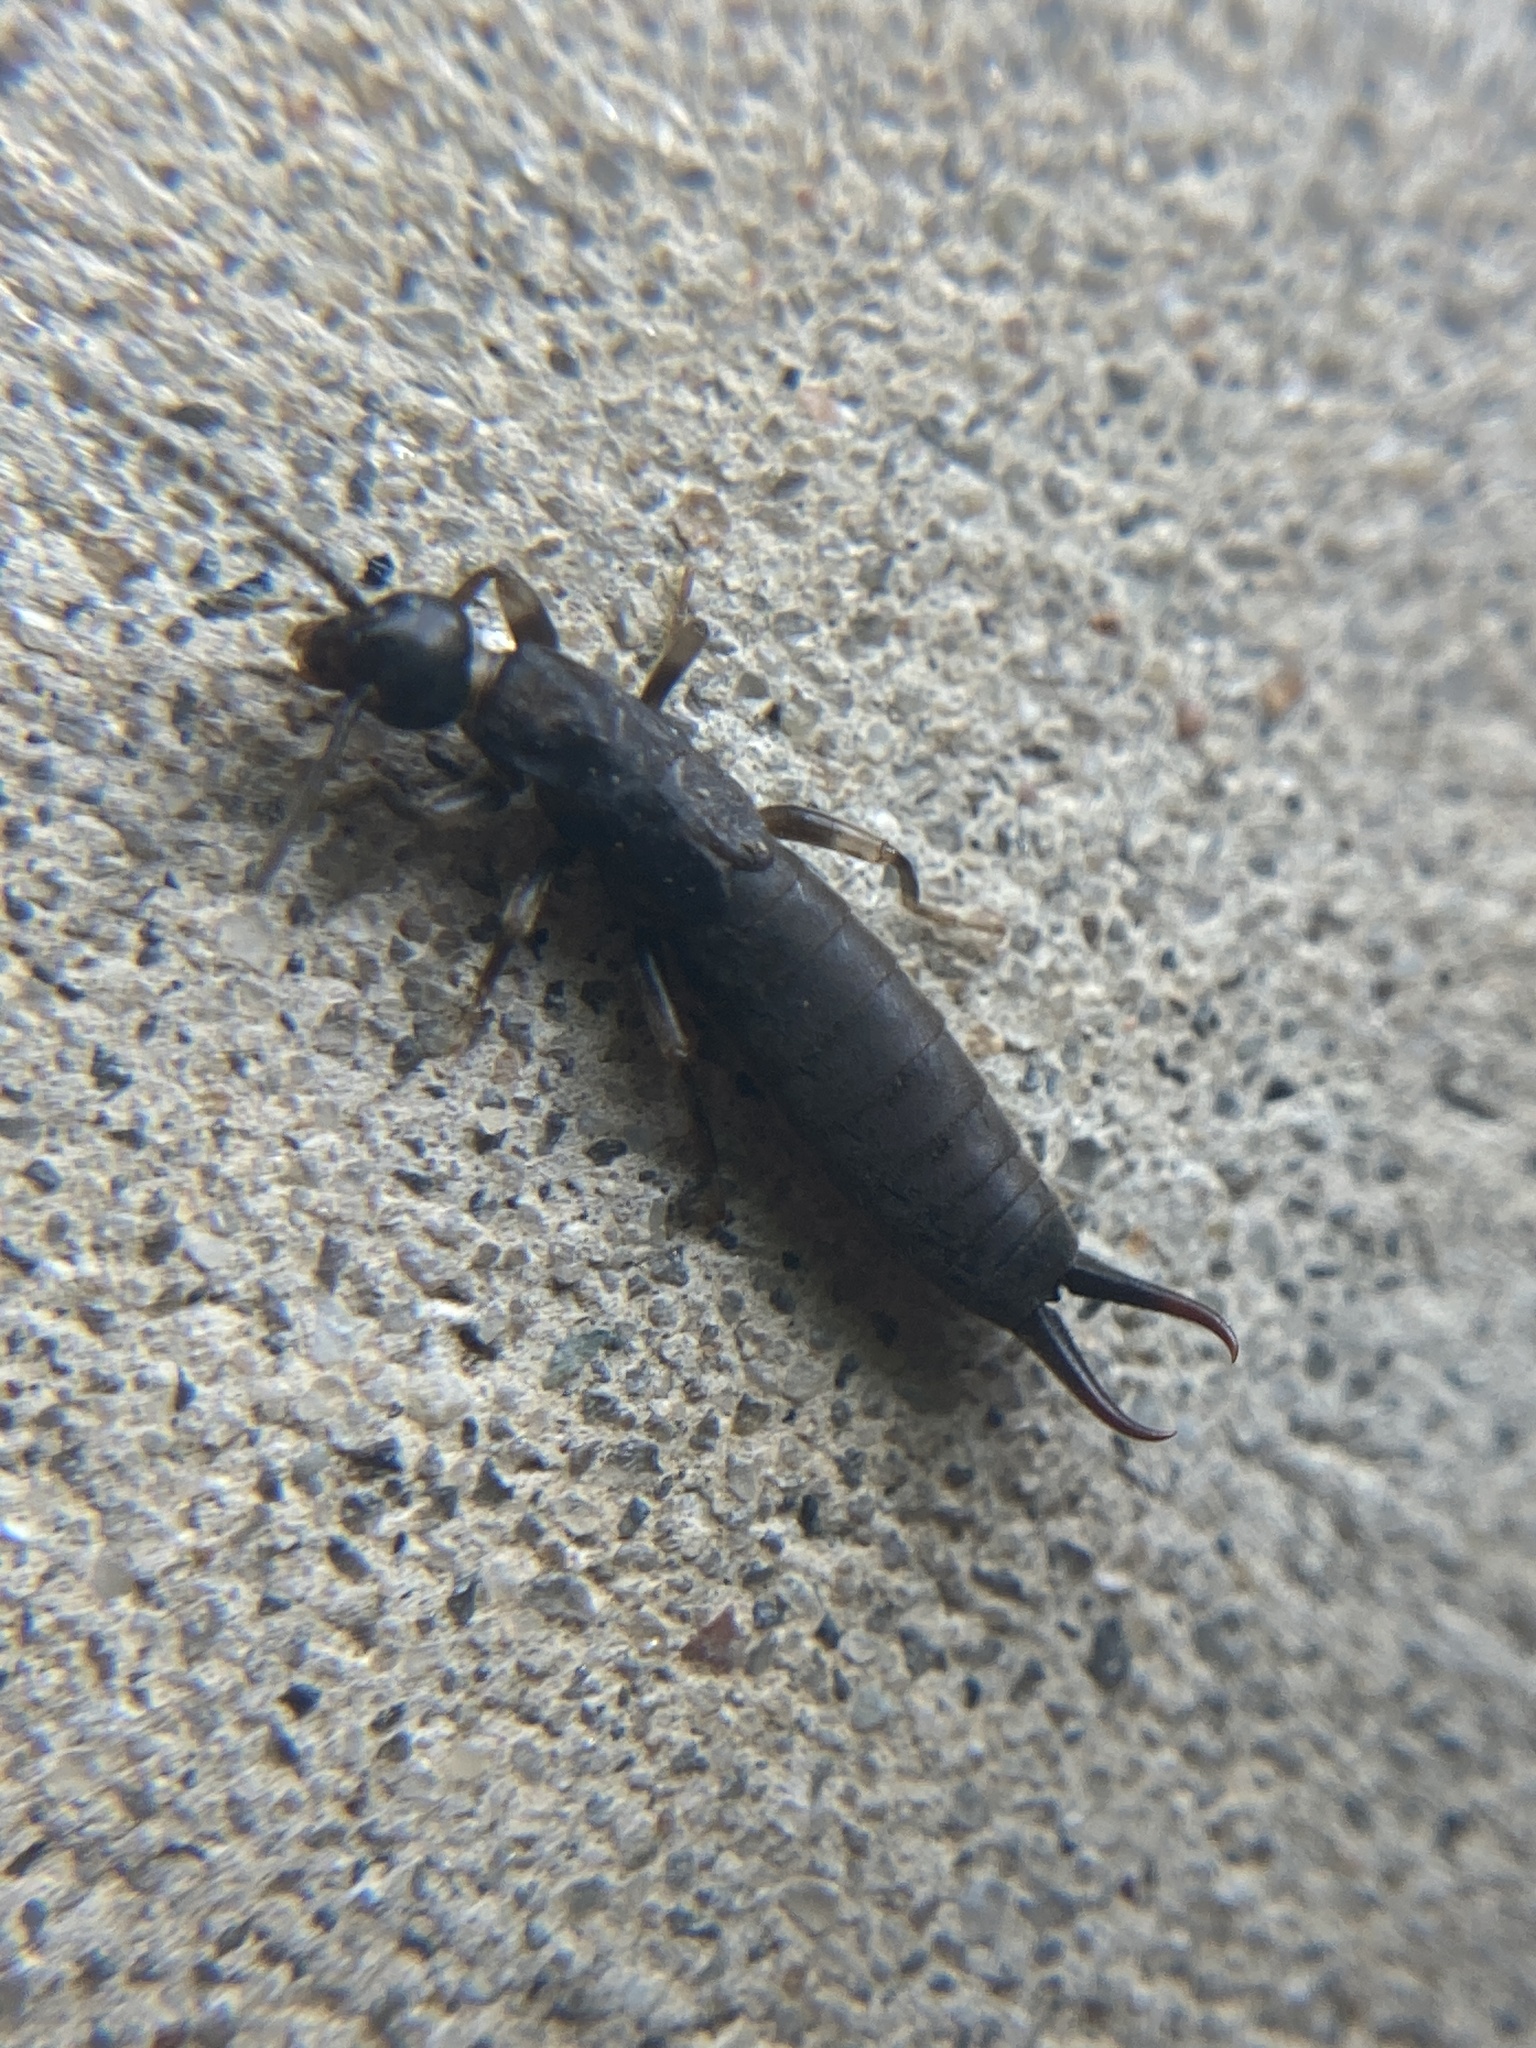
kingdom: Animalia
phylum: Arthropoda
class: Insecta
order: Dermaptera
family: Labiduridae
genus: Nala
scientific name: Nala lividipes
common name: Earwig
